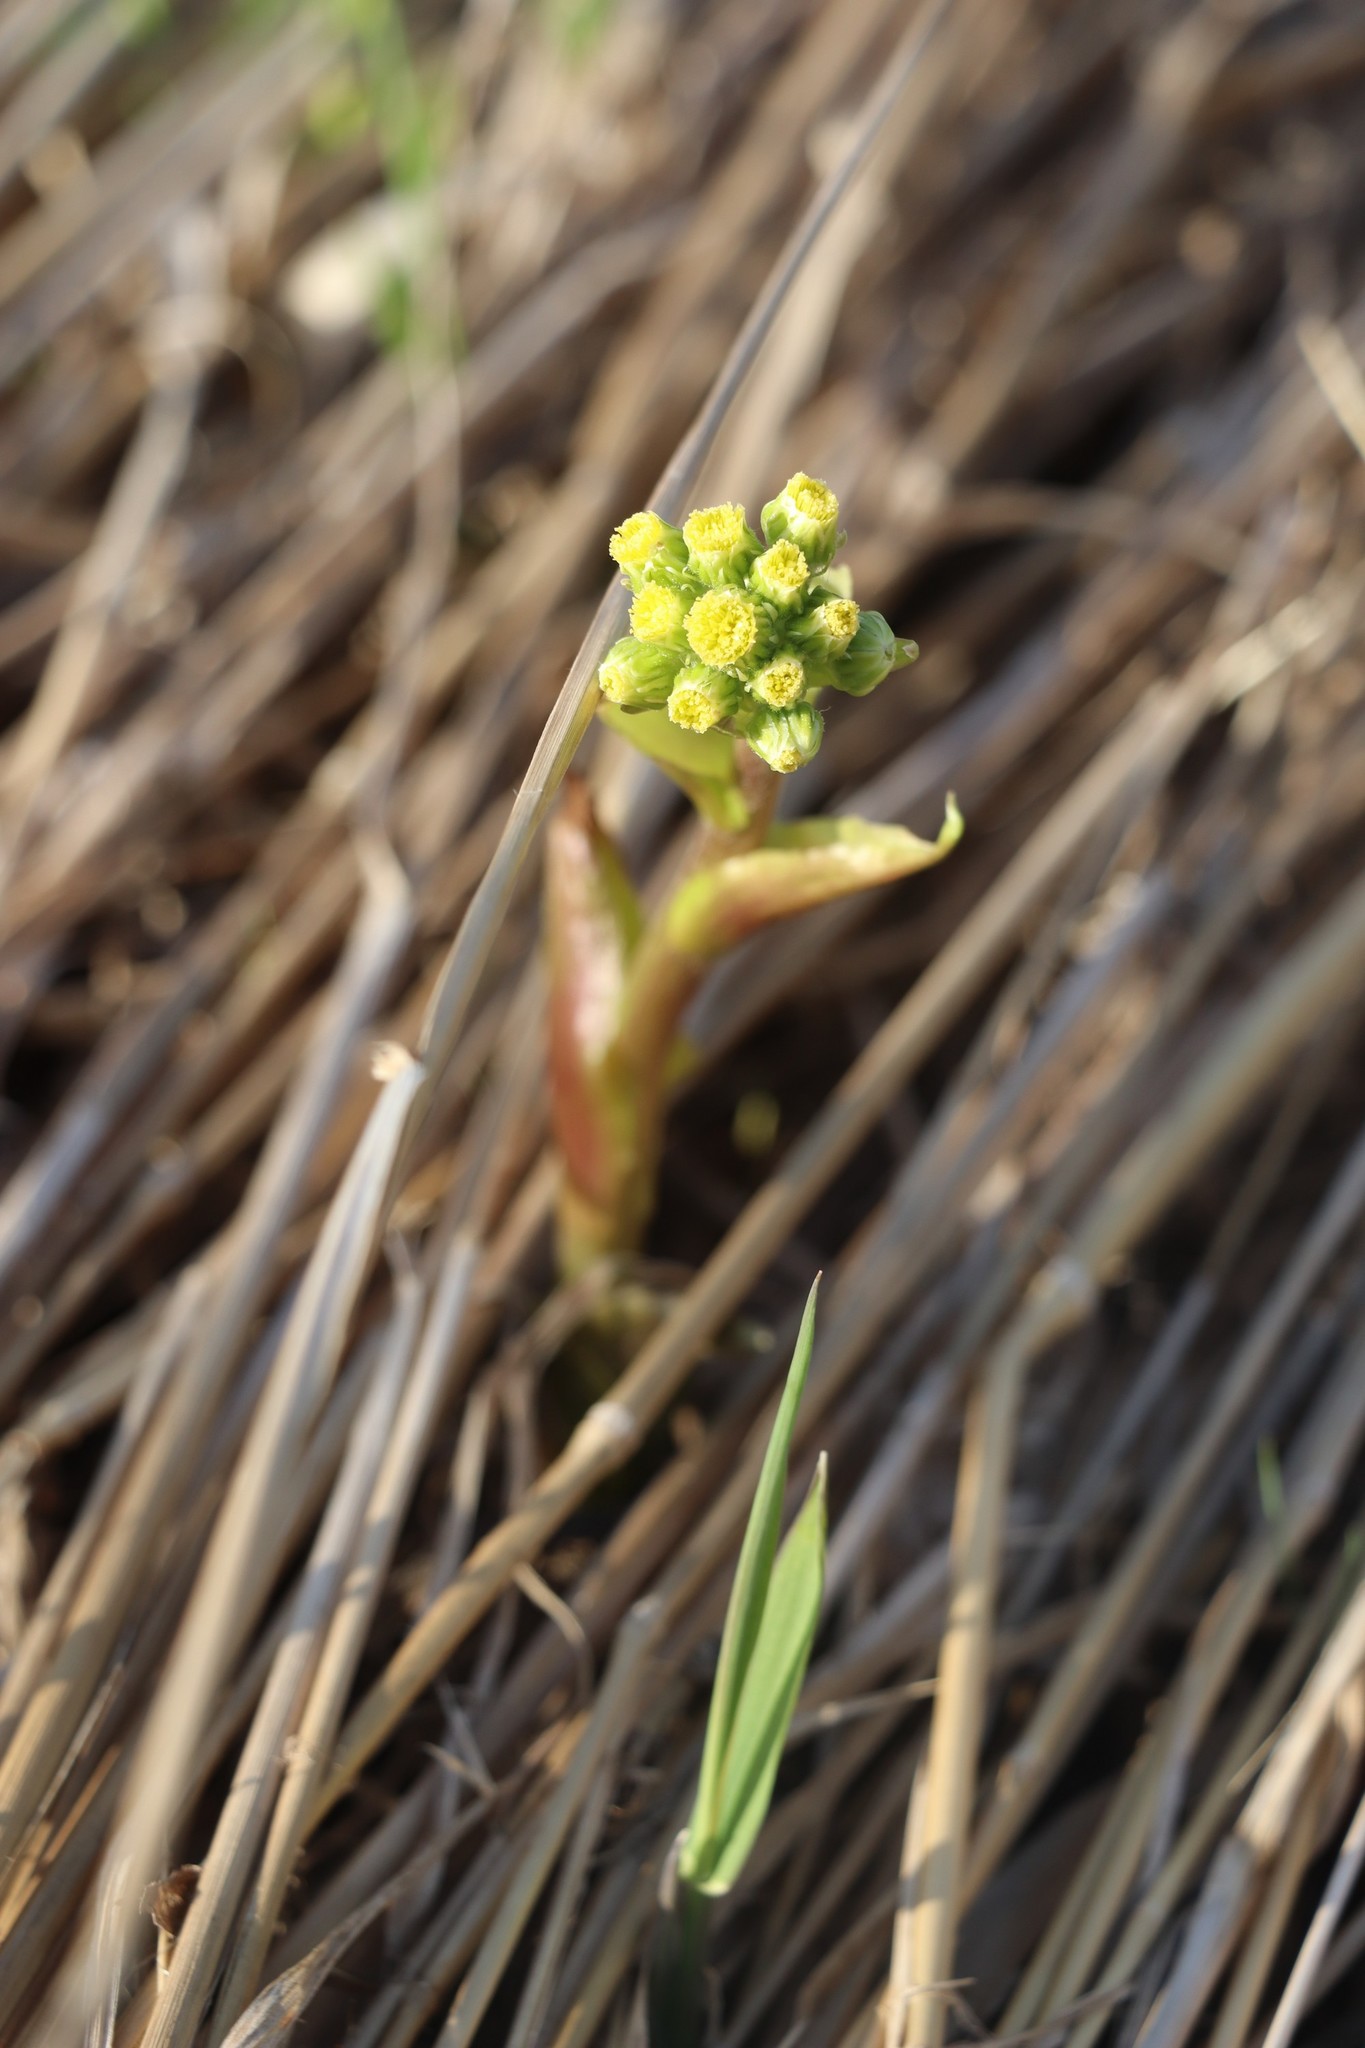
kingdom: Plantae
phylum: Tracheophyta
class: Magnoliopsida
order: Asterales
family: Asteraceae
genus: Petasites
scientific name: Petasites radiatus
